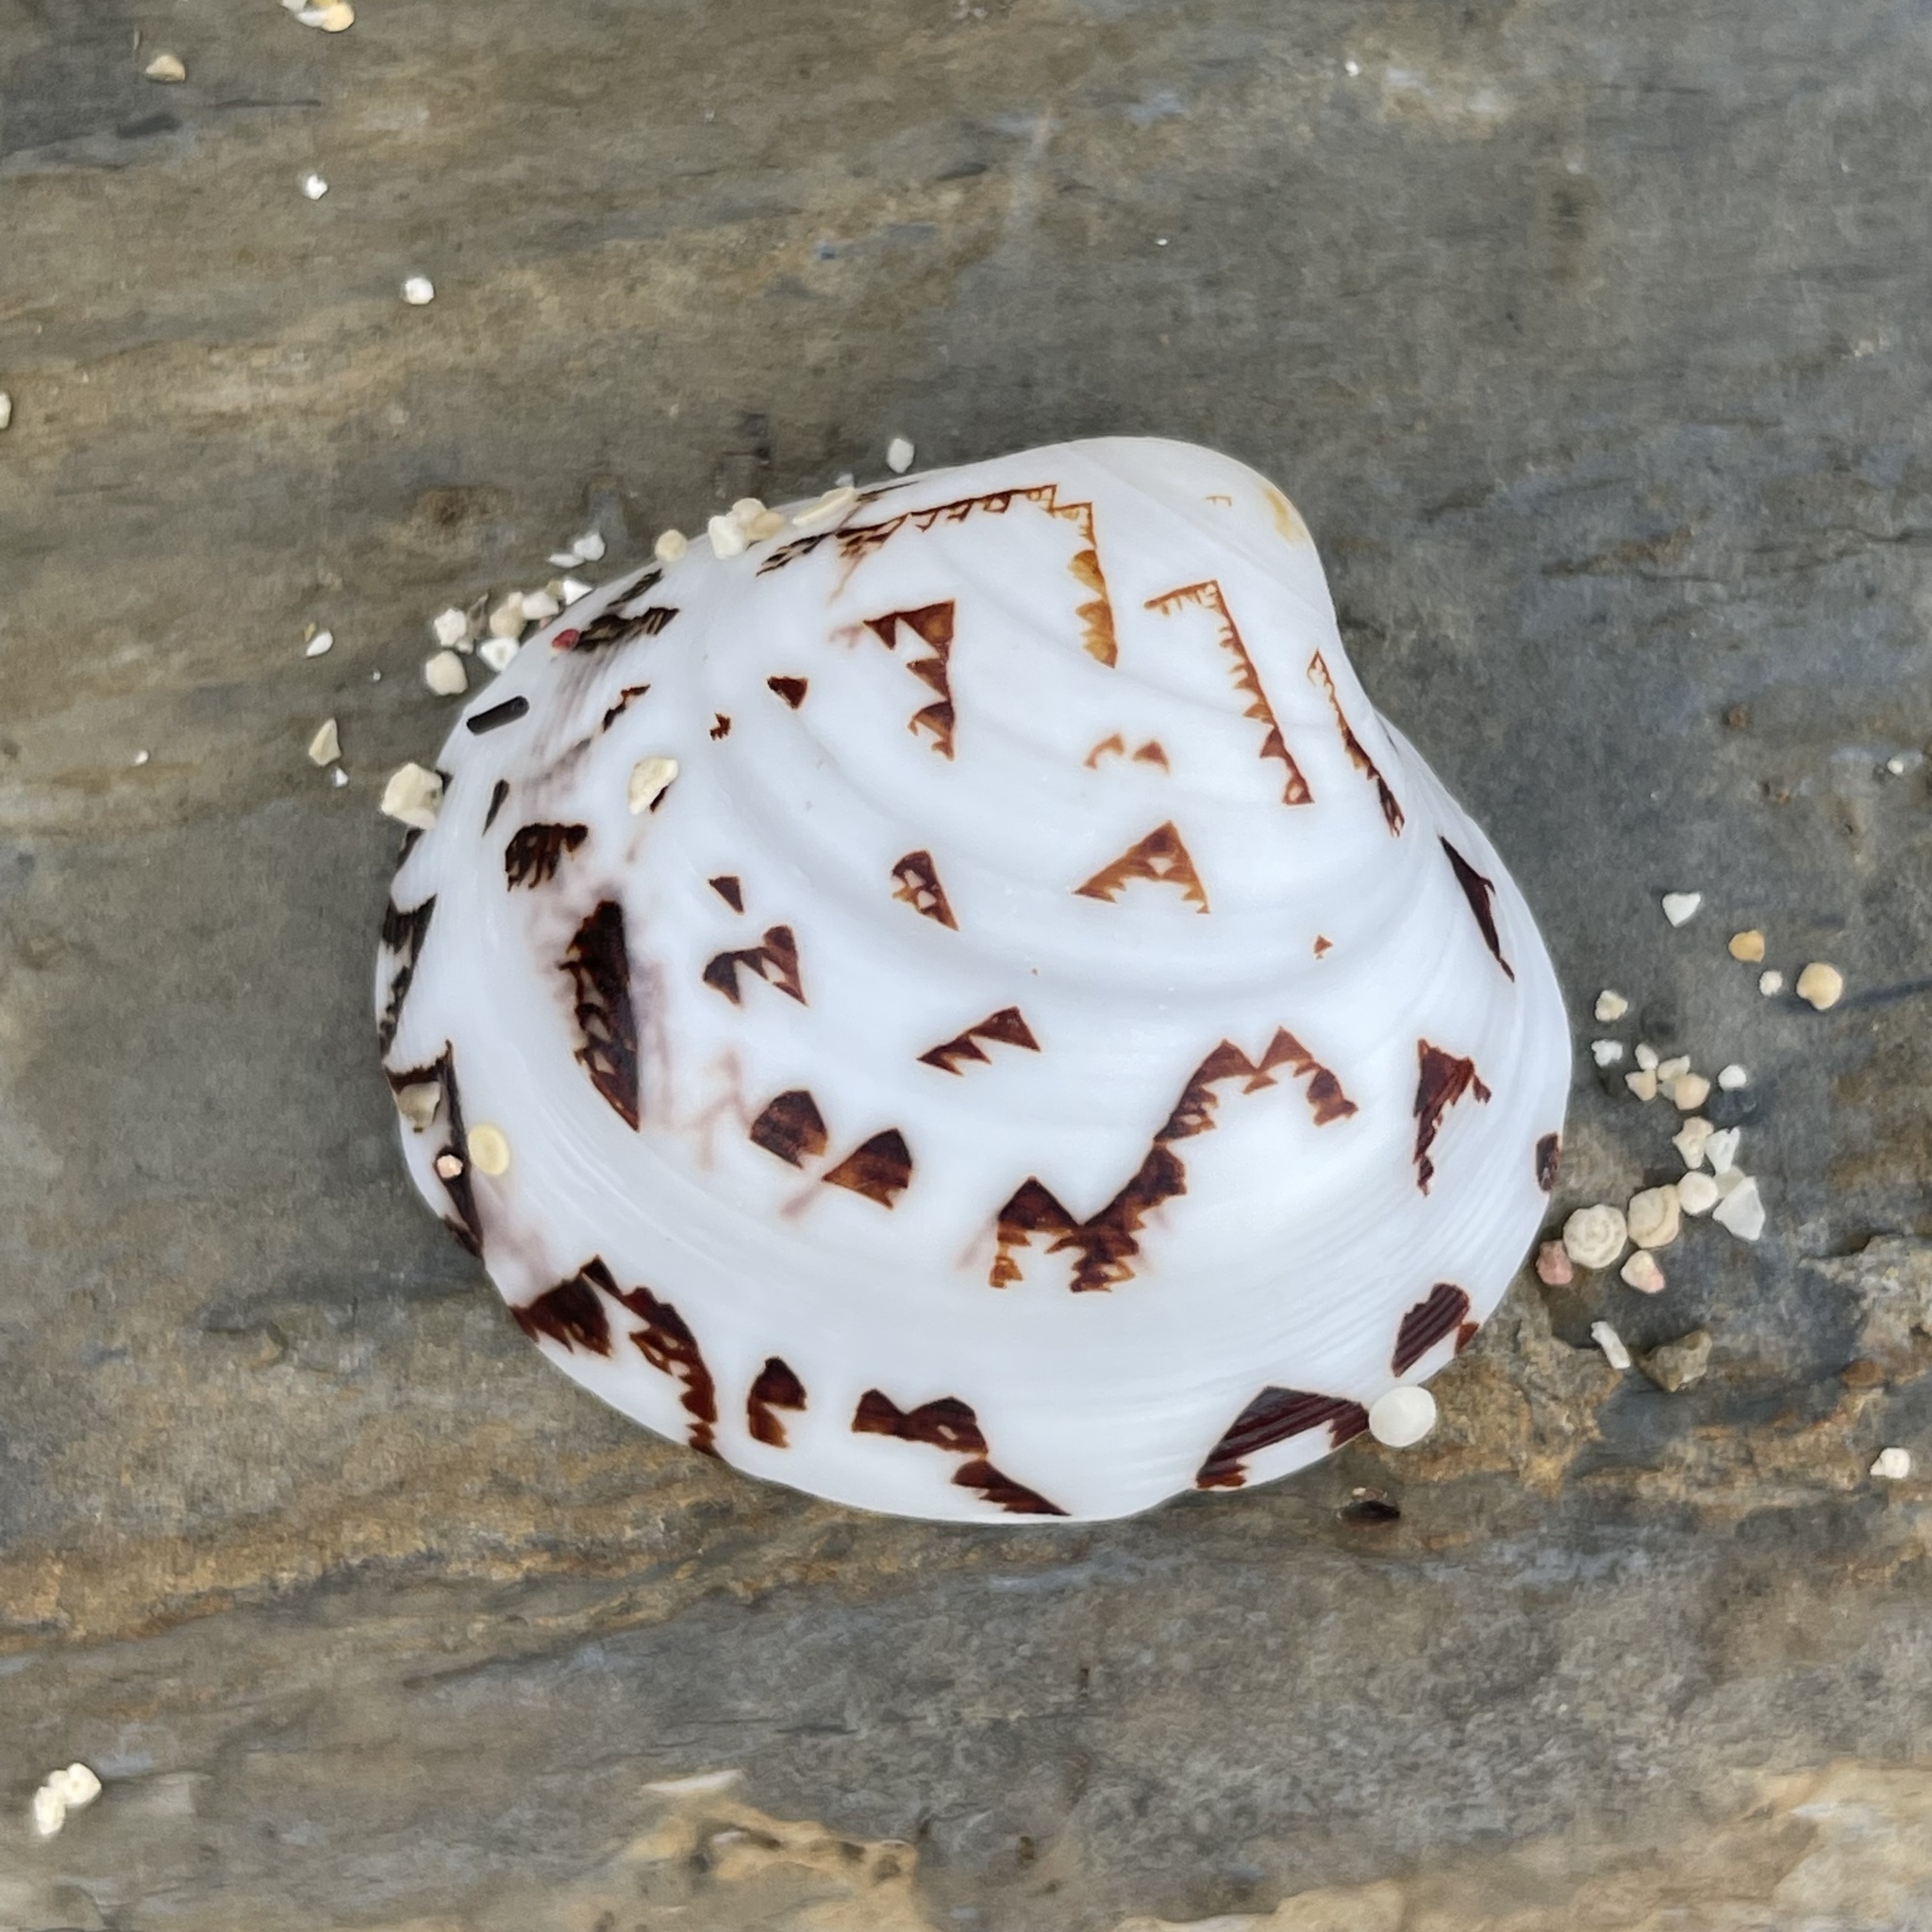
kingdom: Animalia
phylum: Mollusca
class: Bivalvia
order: Venerida
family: Veneridae
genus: Lioconcha
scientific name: Lioconcha castrensis
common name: Camp pitar-venus
